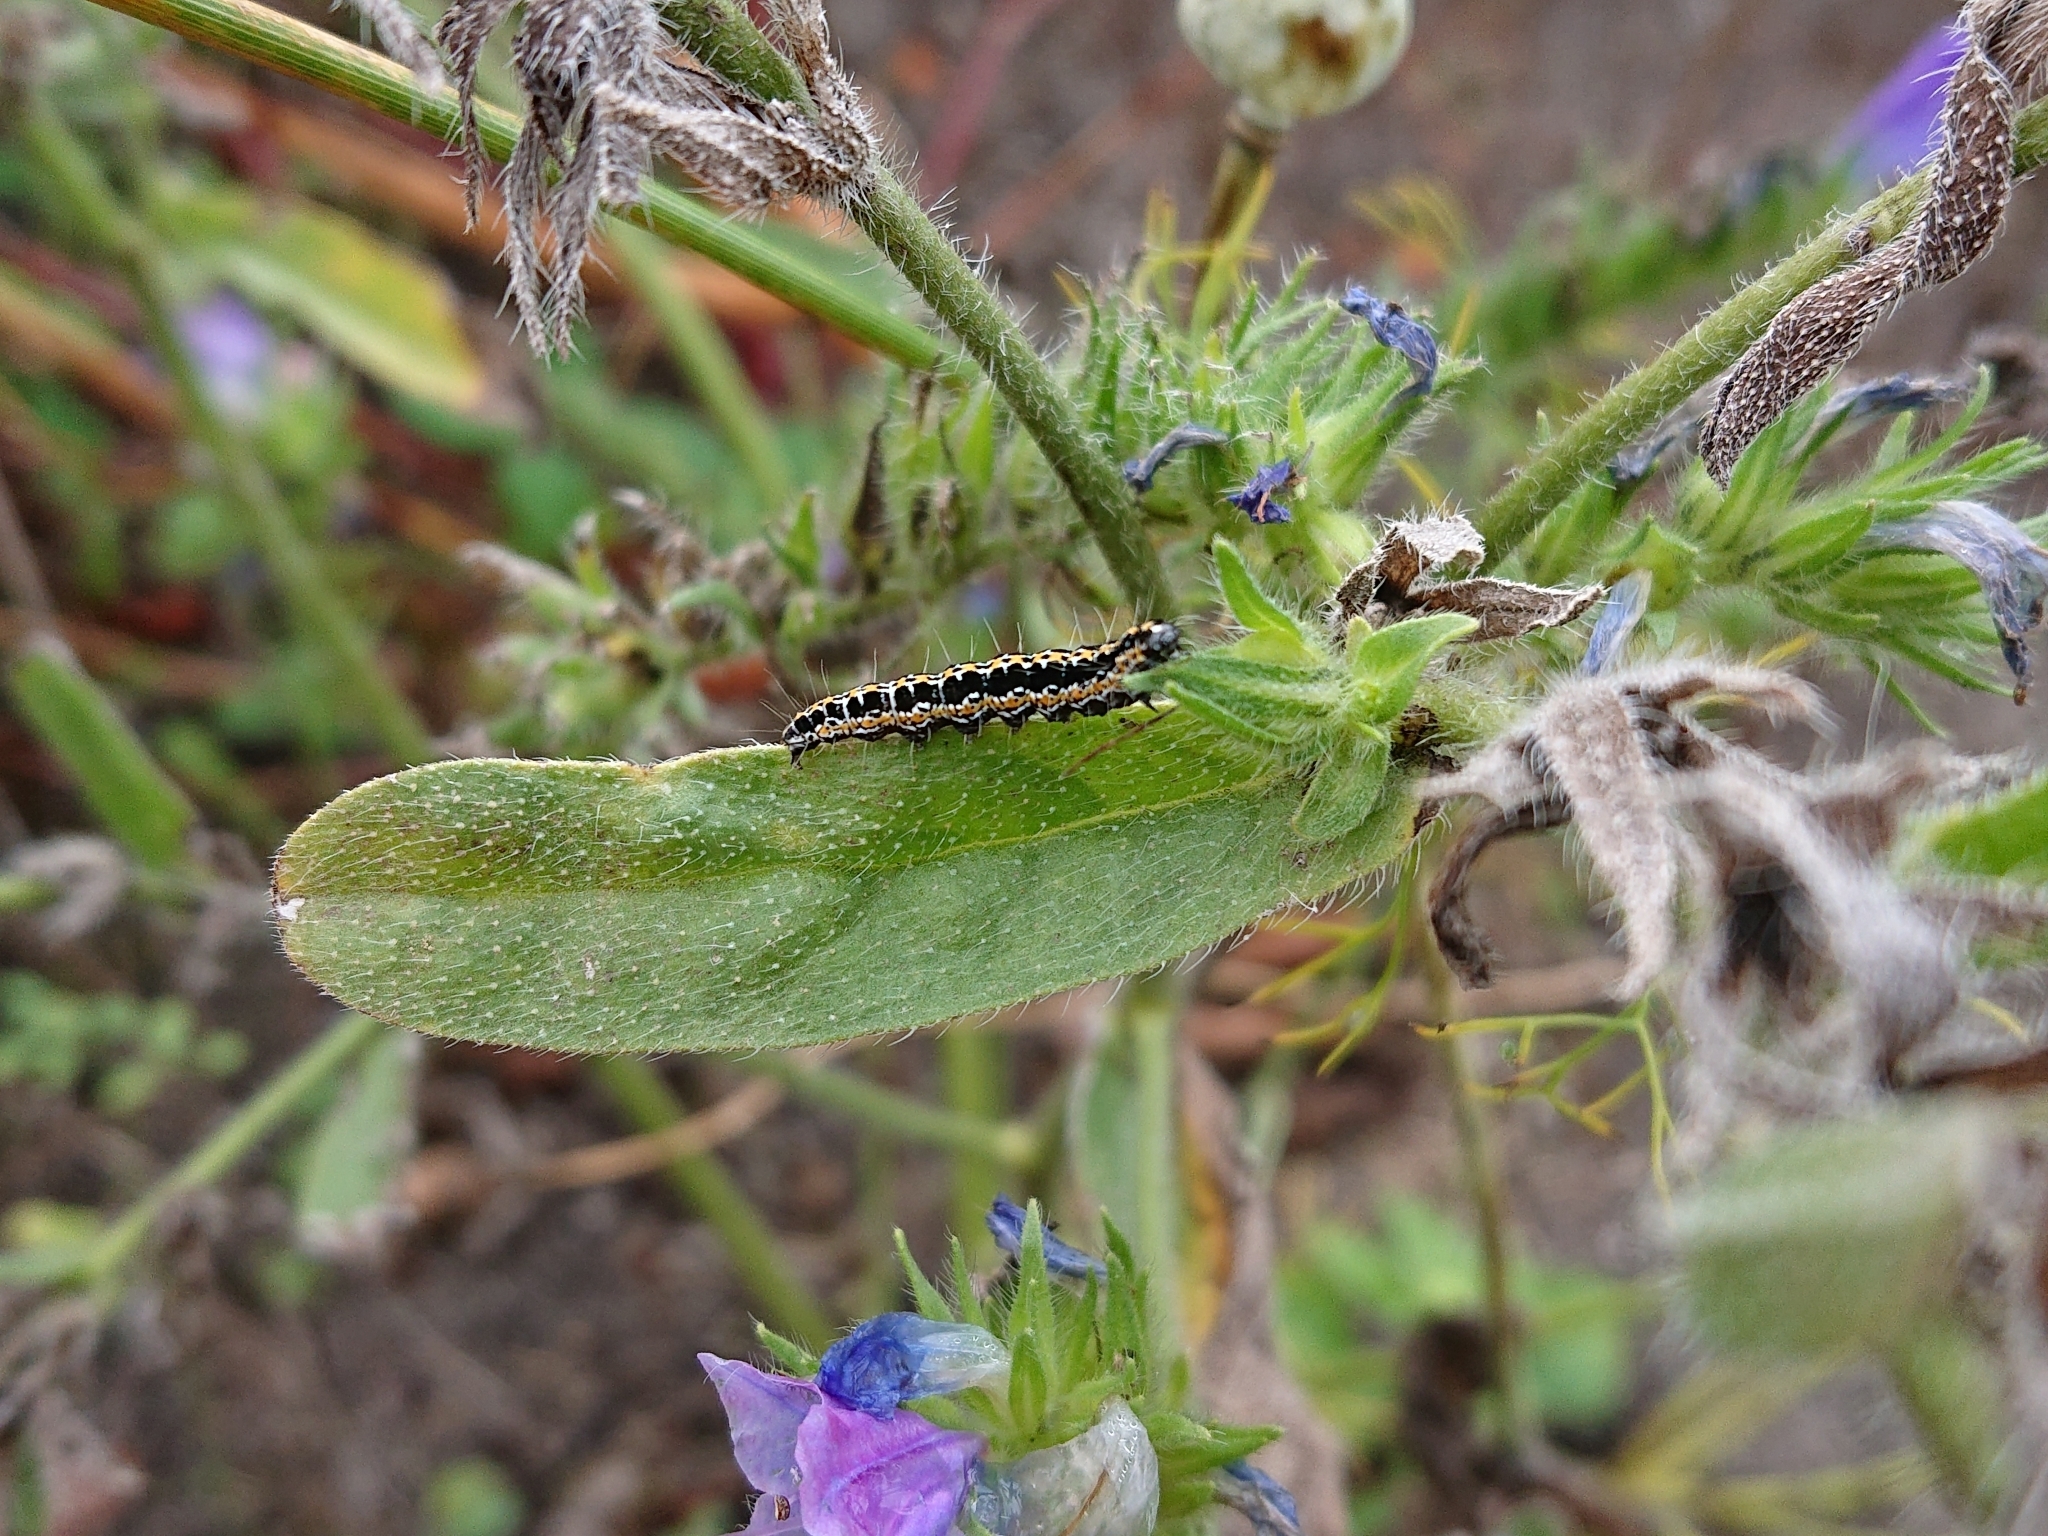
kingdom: Animalia
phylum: Arthropoda
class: Insecta
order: Lepidoptera
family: Ethmiidae
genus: Ethmia
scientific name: Ethmia bipunctella
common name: Bordered ermel
